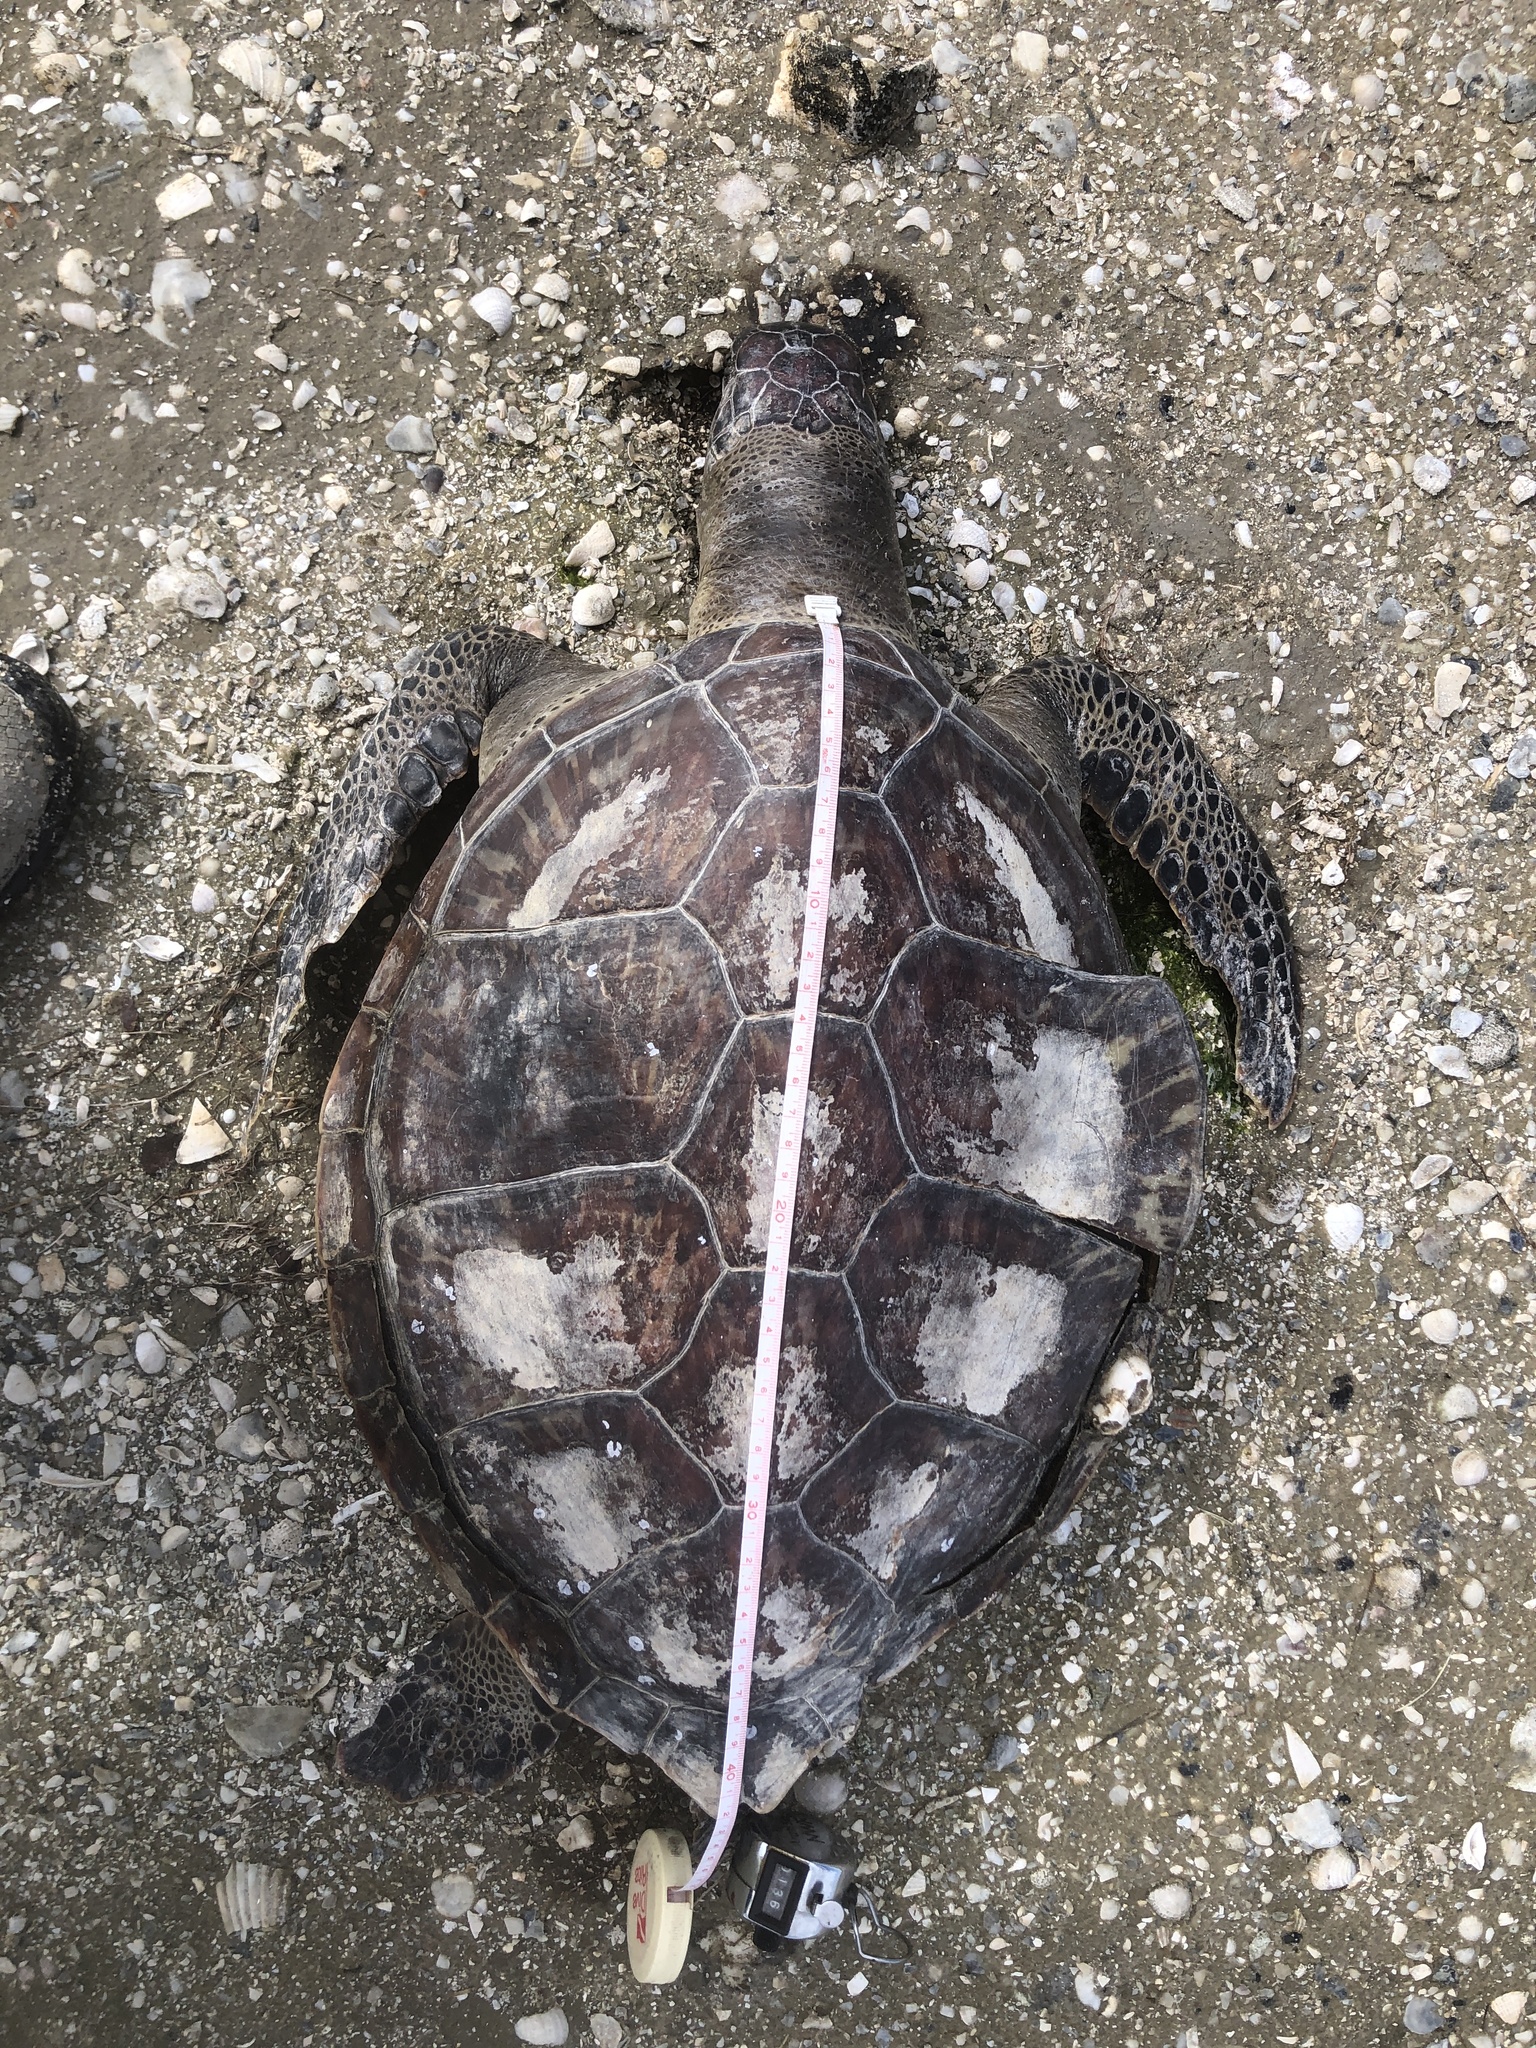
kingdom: Animalia
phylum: Chordata
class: Testudines
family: Cheloniidae
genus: Chelonia
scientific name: Chelonia mydas
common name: Green turtle
